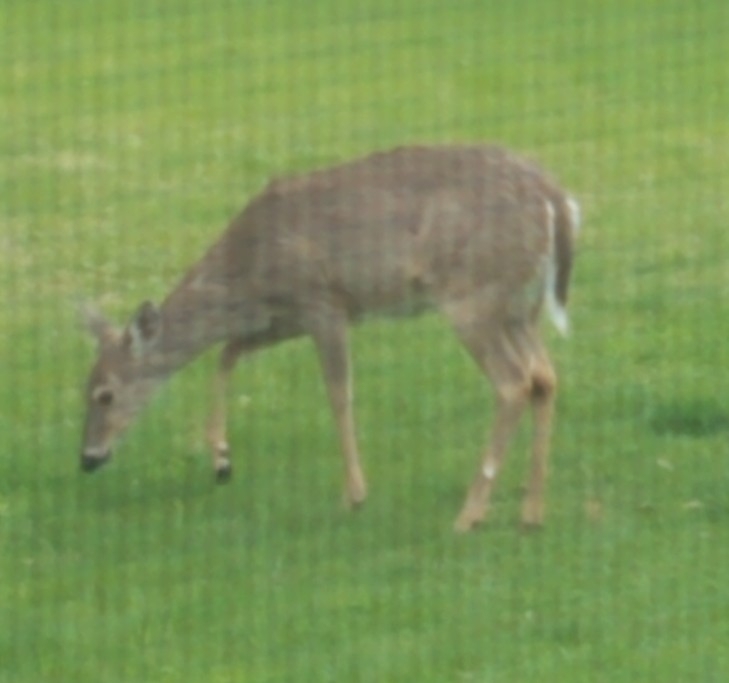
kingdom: Animalia
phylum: Chordata
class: Mammalia
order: Artiodactyla
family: Cervidae
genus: Odocoileus
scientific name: Odocoileus virginianus
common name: White-tailed deer
